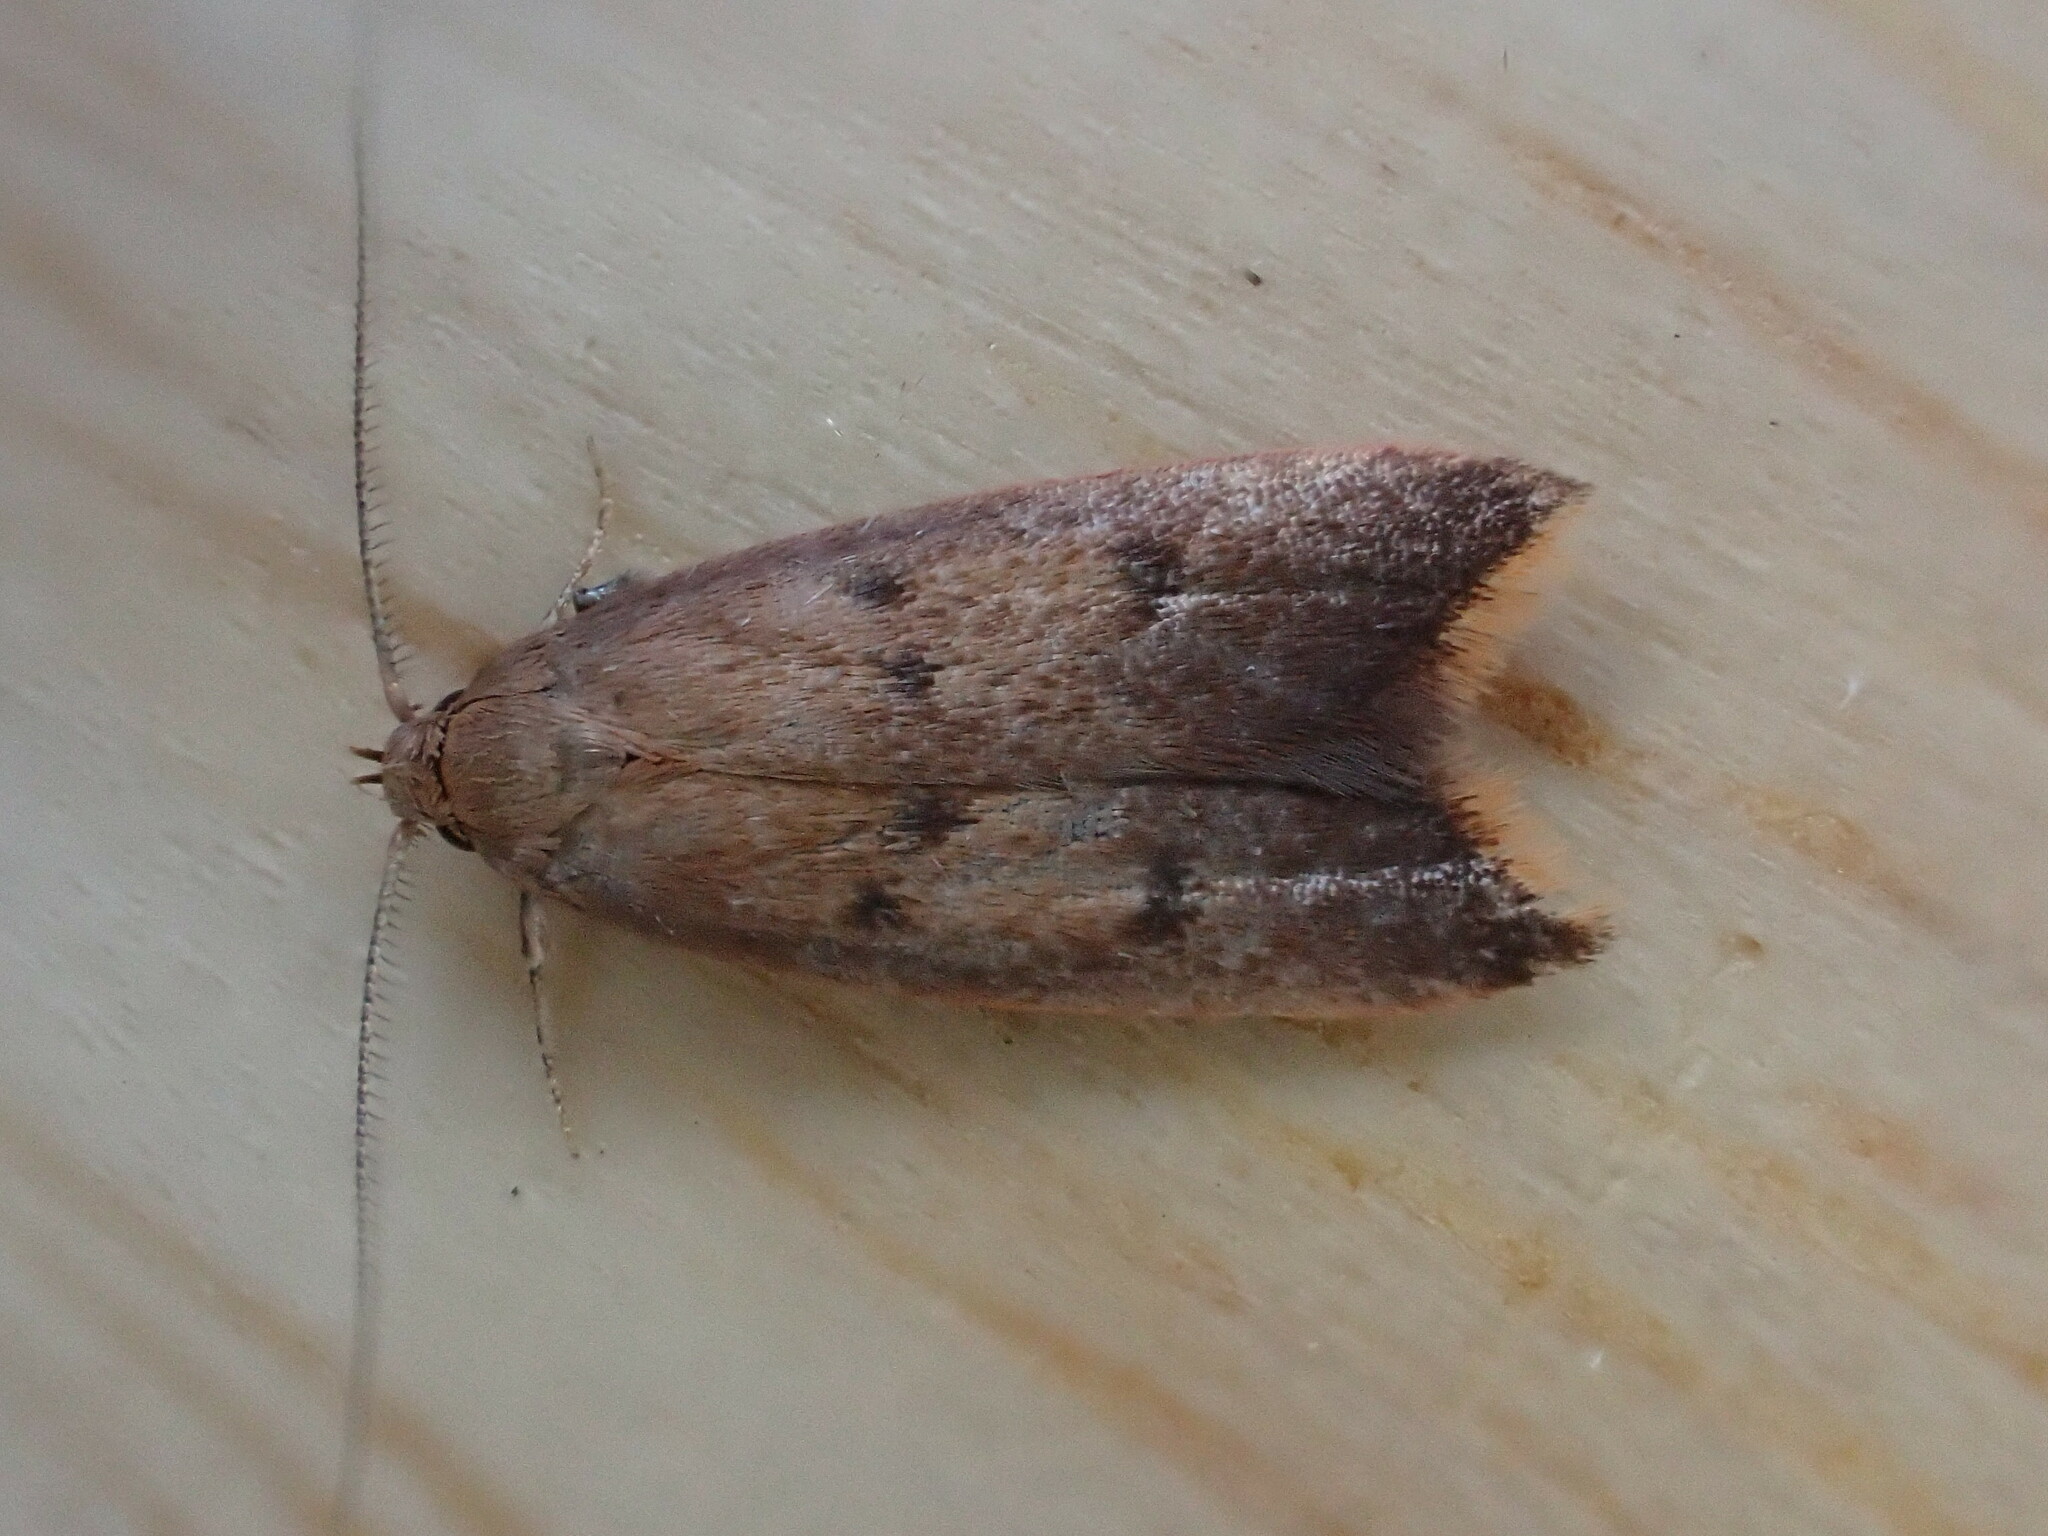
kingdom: Animalia
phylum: Arthropoda
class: Insecta
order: Lepidoptera
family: Oecophoridae
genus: Tachystola
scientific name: Tachystola acroxantha
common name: Ruddy streak
